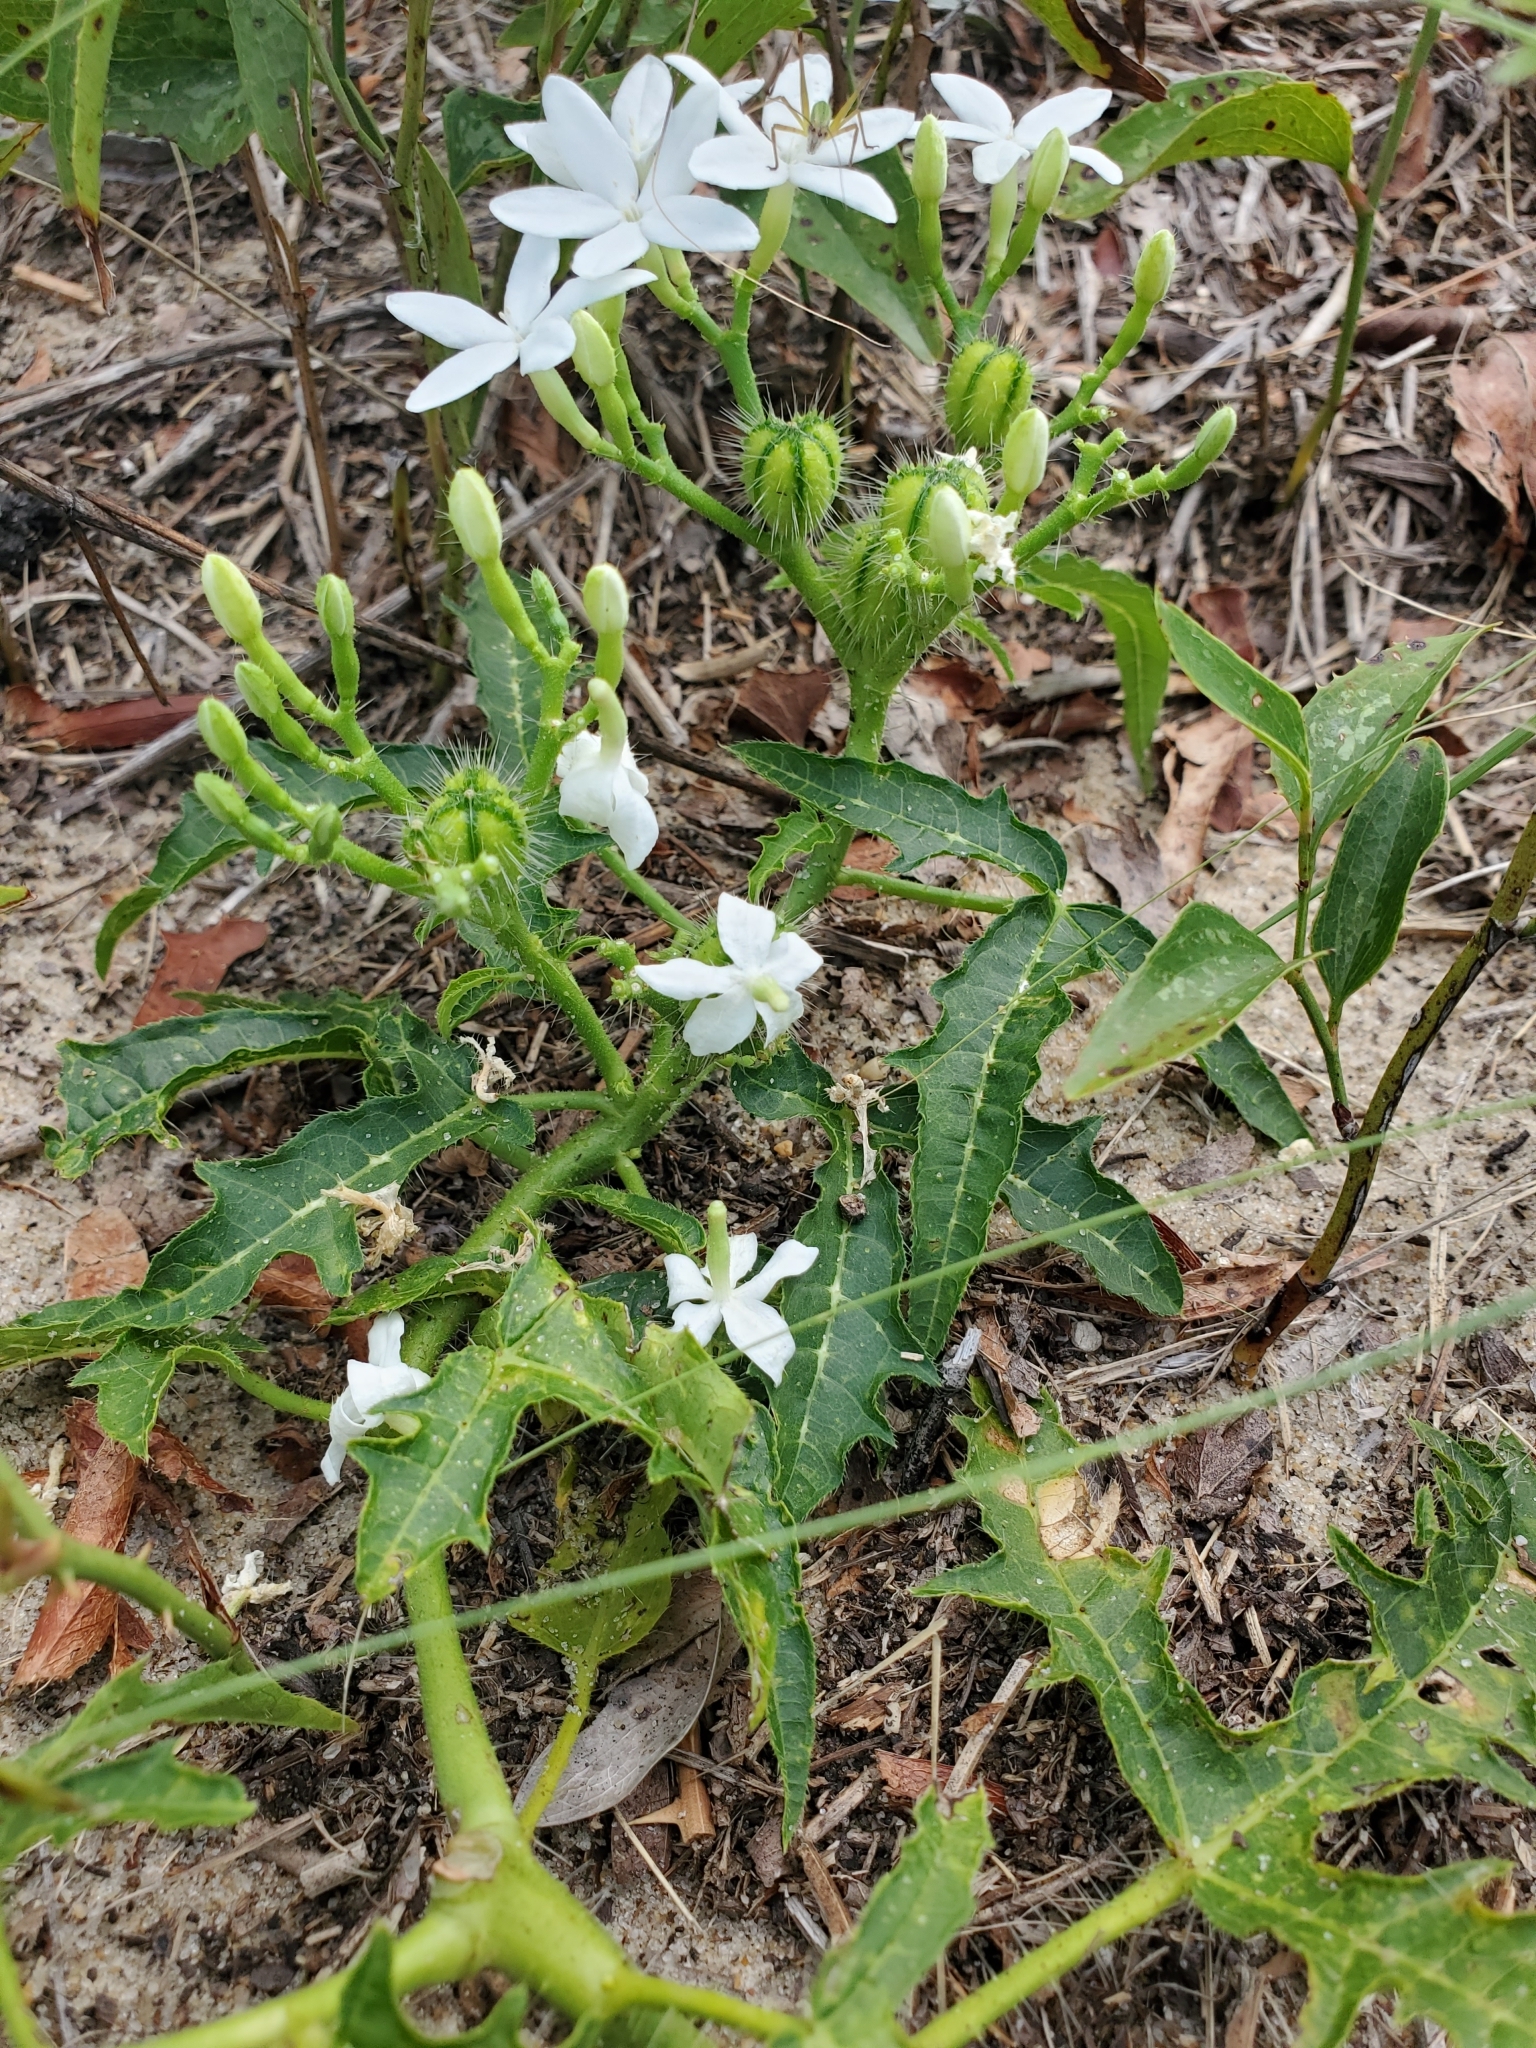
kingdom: Plantae
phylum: Tracheophyta
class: Magnoliopsida
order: Malpighiales
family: Euphorbiaceae
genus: Cnidoscolus
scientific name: Cnidoscolus stimulosus
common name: Bull-nettle
